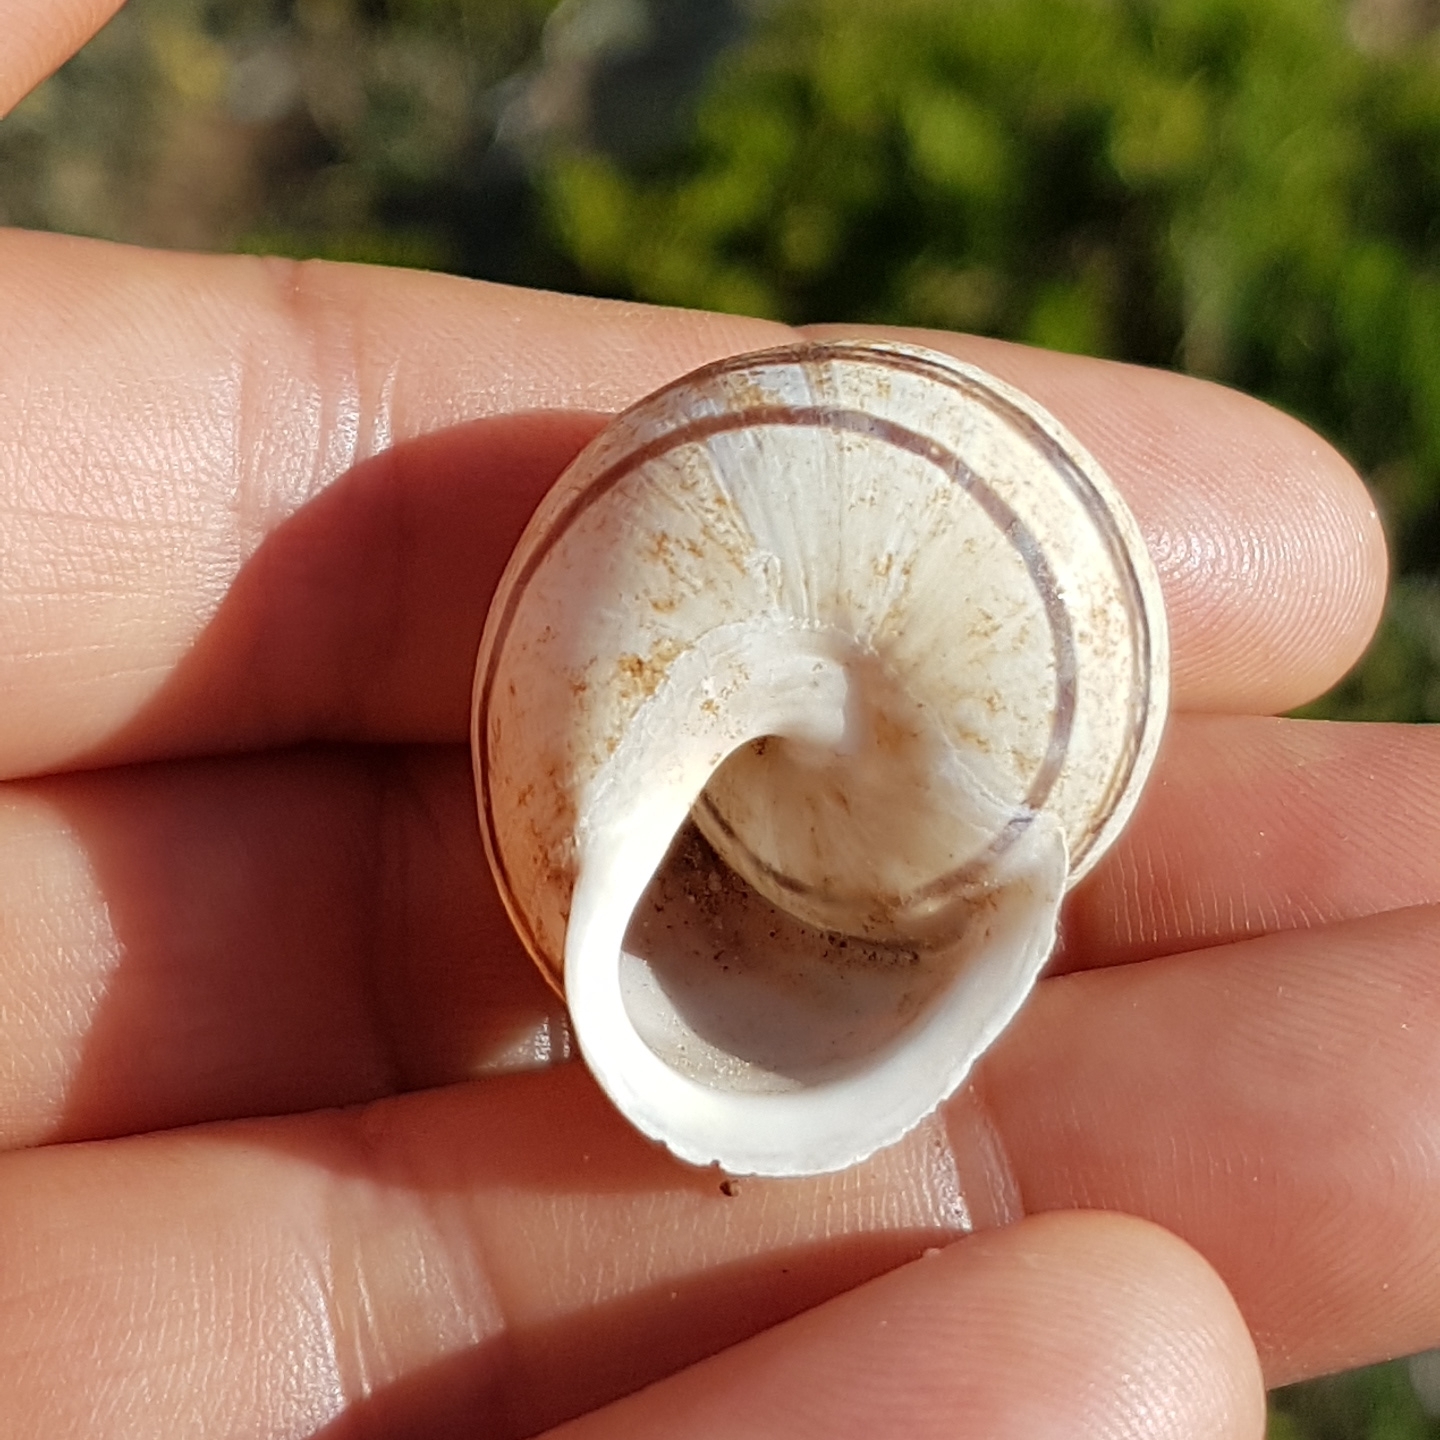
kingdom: Animalia
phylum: Mollusca
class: Gastropoda
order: Stylommatophora
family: Helicidae
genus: Eobania
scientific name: Eobania vermiculata
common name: Chocolateband snail
